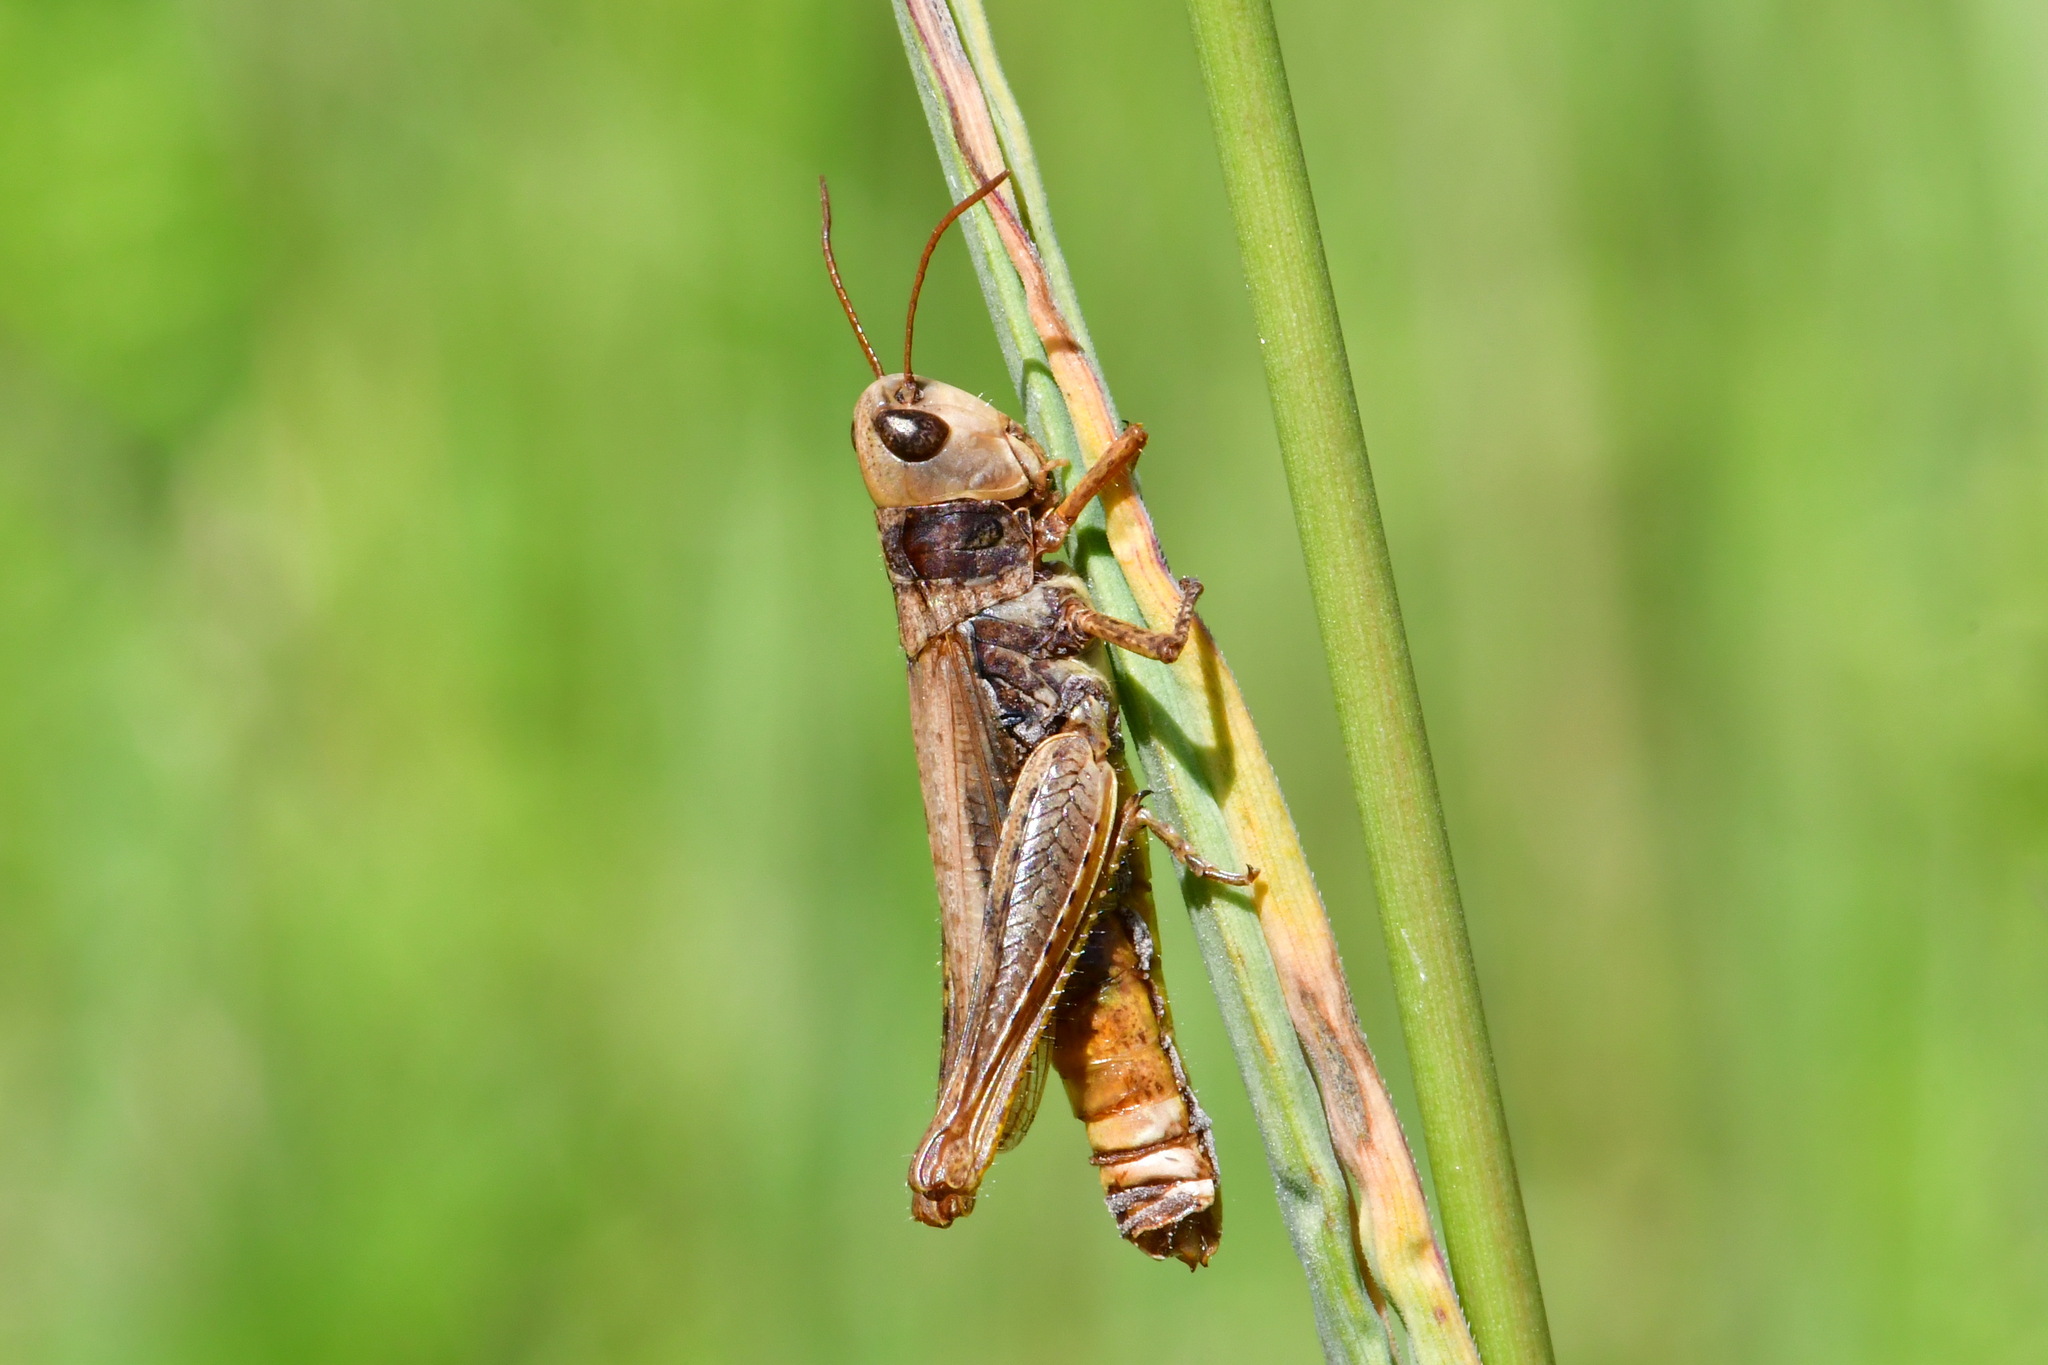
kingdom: Animalia
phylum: Arthropoda
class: Insecta
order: Orthoptera
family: Acrididae
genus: Chorthippus
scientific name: Chorthippus apricarius
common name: Upland field grasshopper
